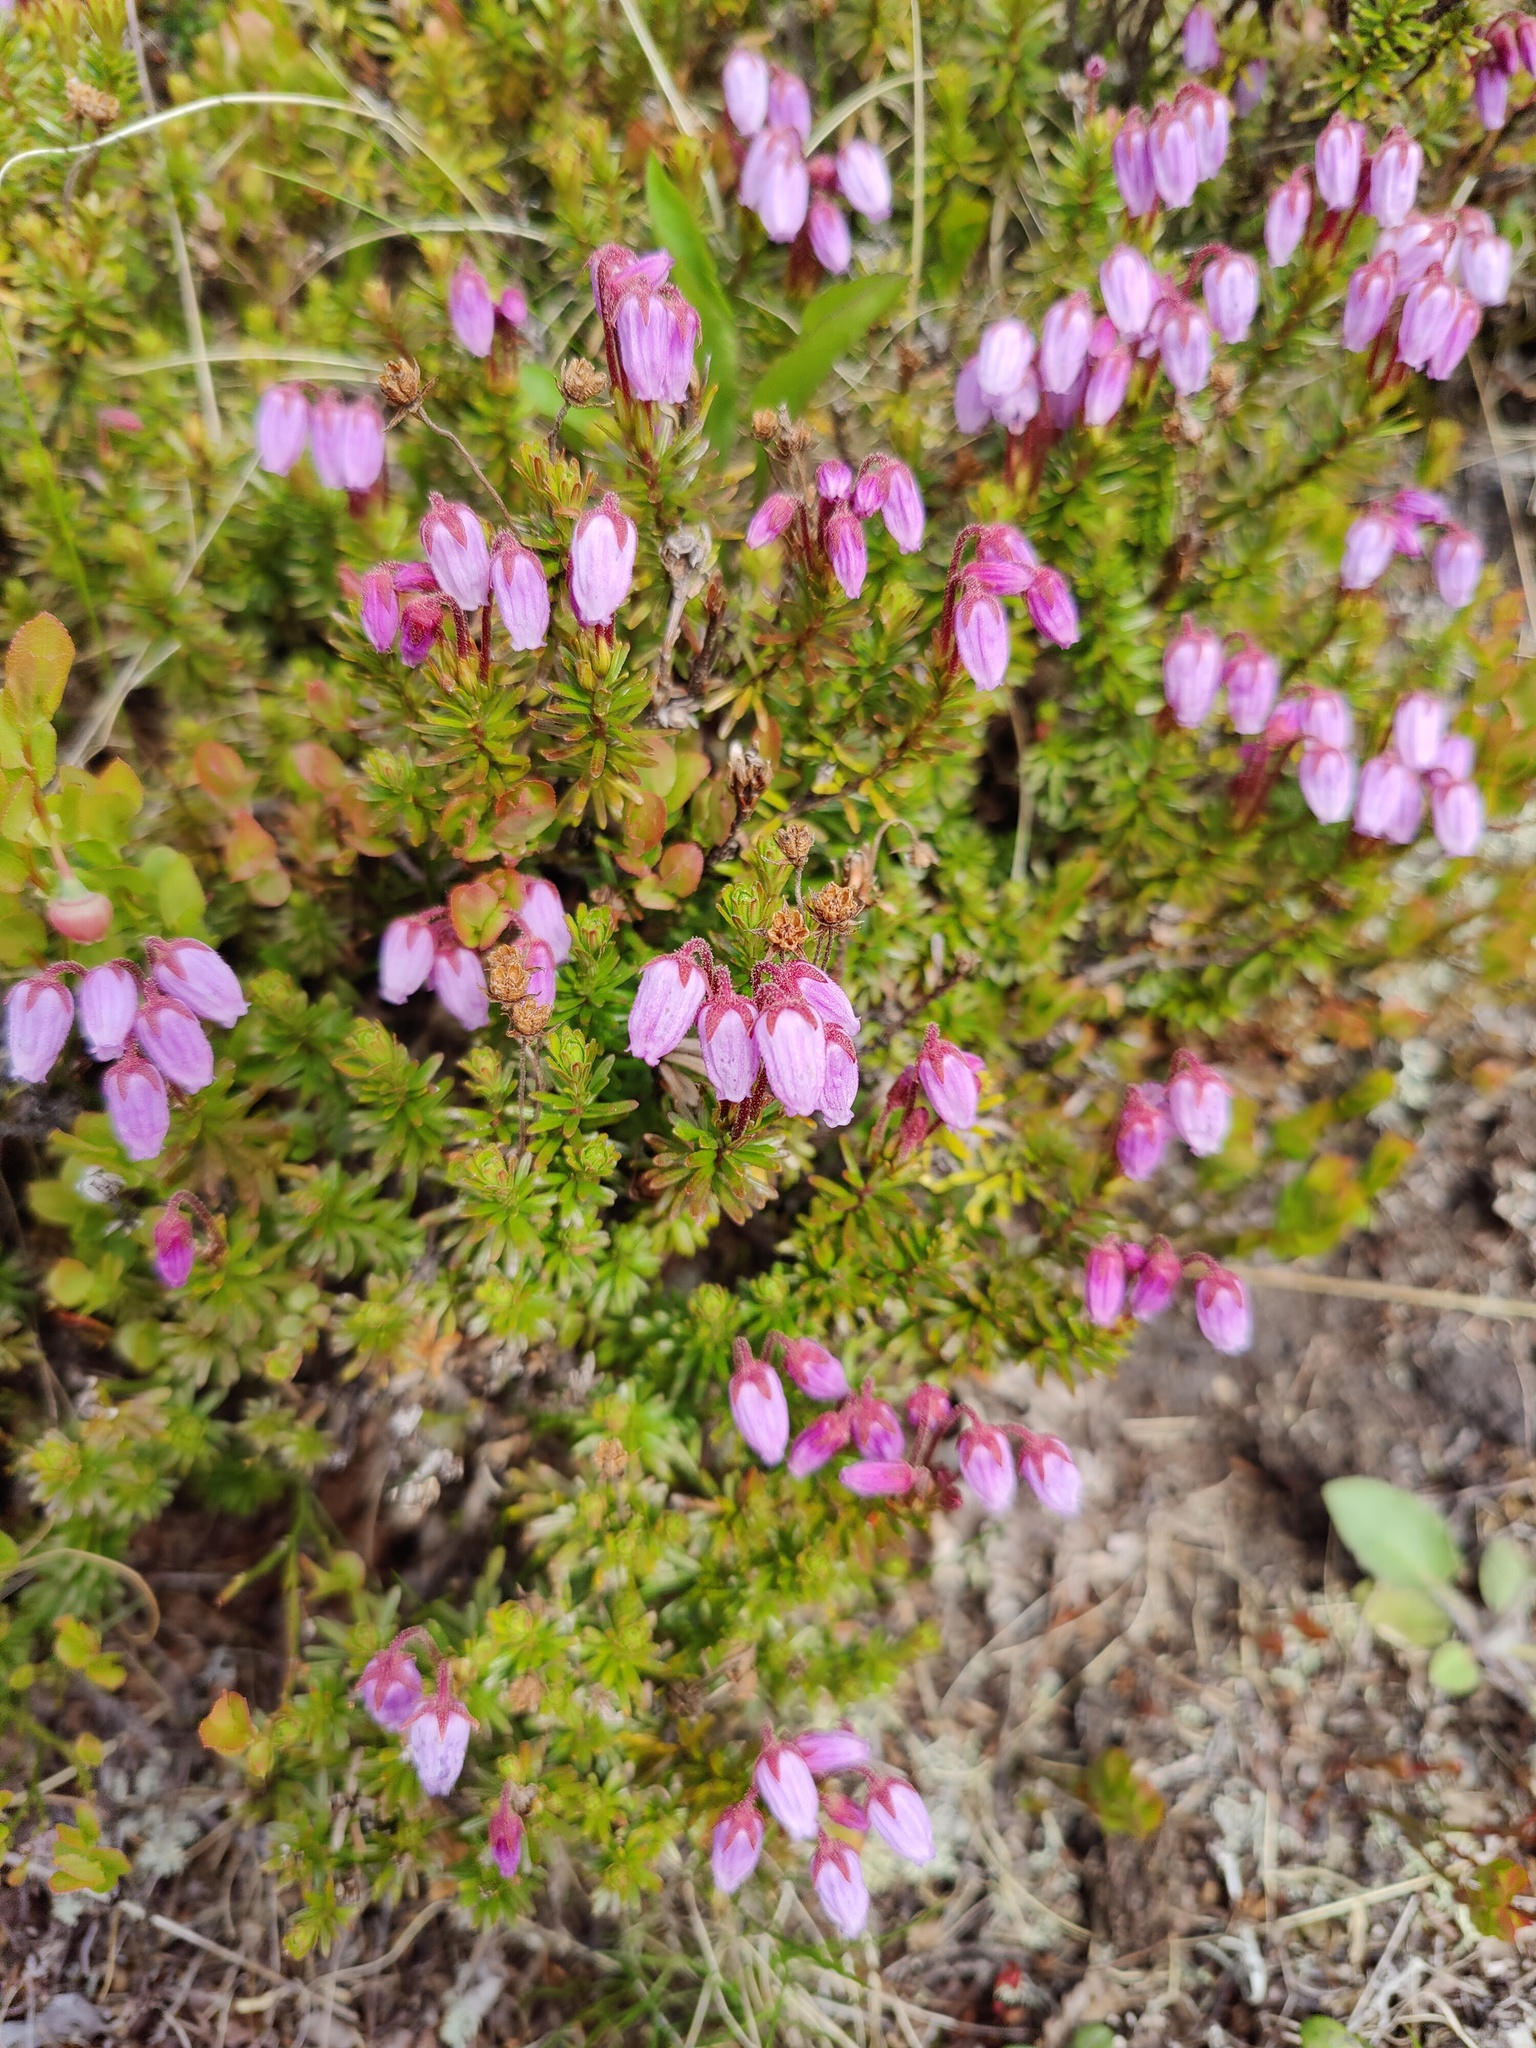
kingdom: Plantae
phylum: Tracheophyta
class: Magnoliopsida
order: Ericales
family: Ericaceae
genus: Phyllodoce
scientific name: Phyllodoce caerulea
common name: Blue heath
